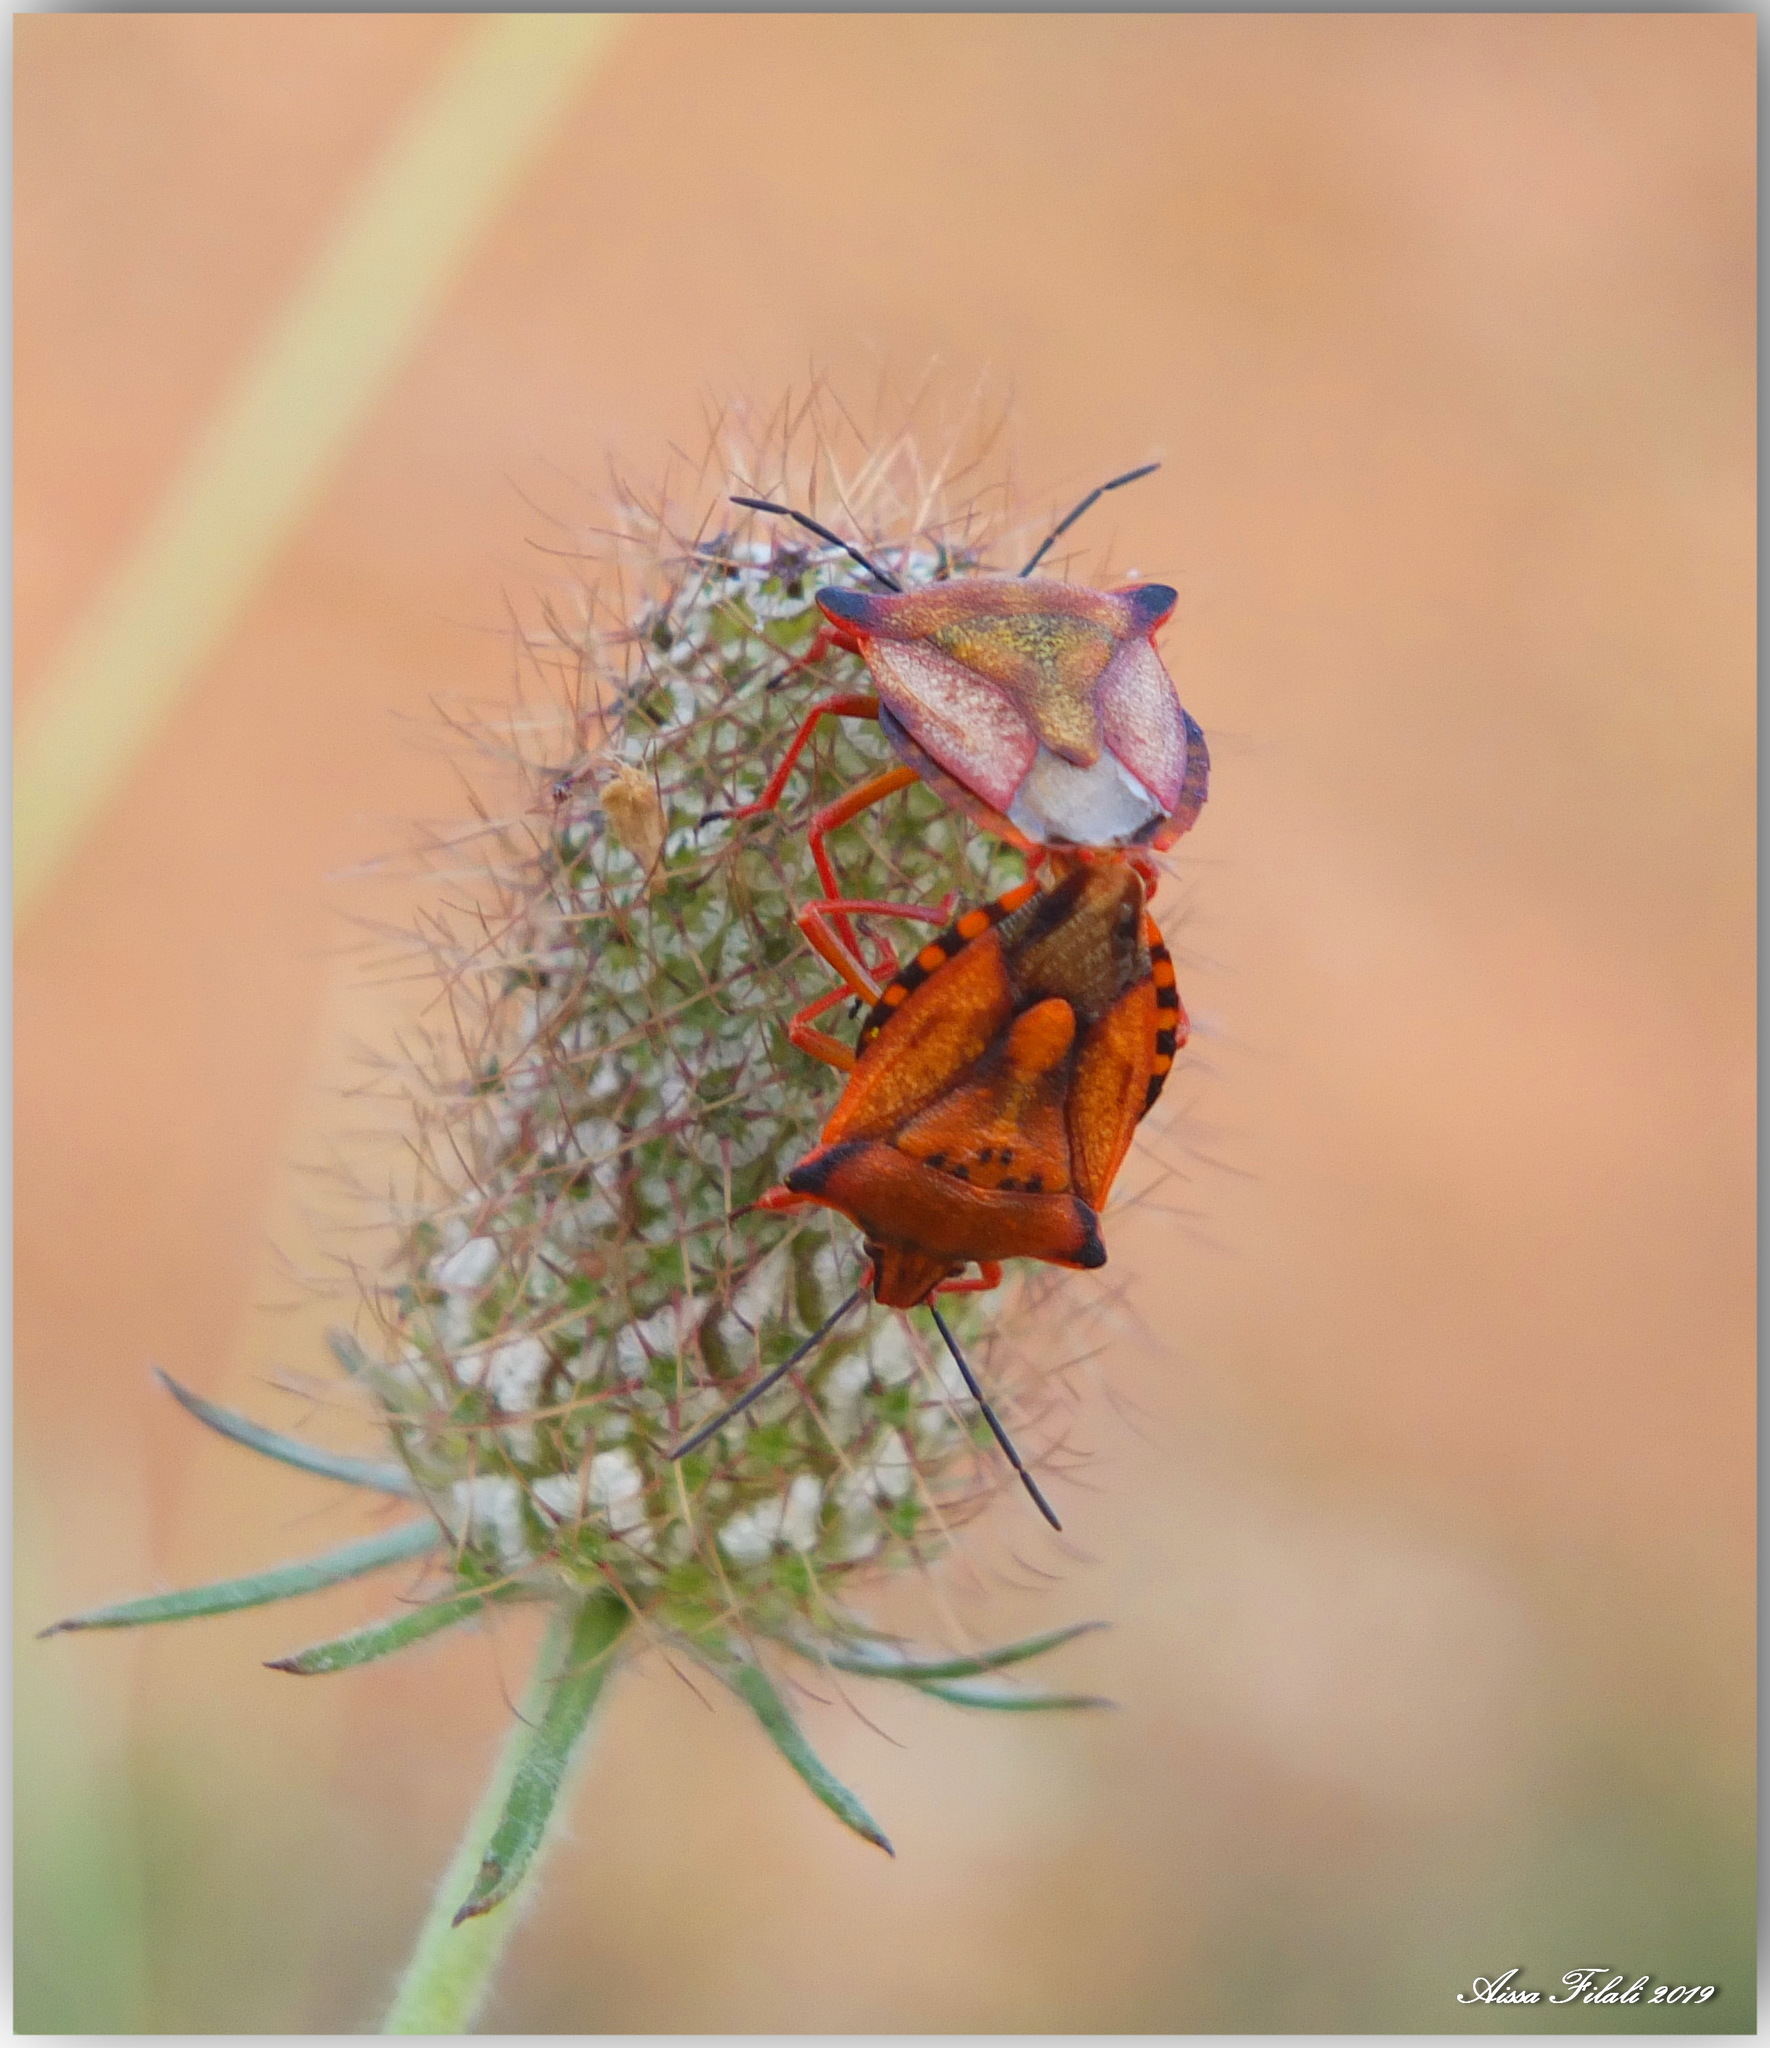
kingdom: Animalia
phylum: Arthropoda
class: Insecta
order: Hemiptera
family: Pentatomidae
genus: Carpocoris
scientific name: Carpocoris mediterraneus
